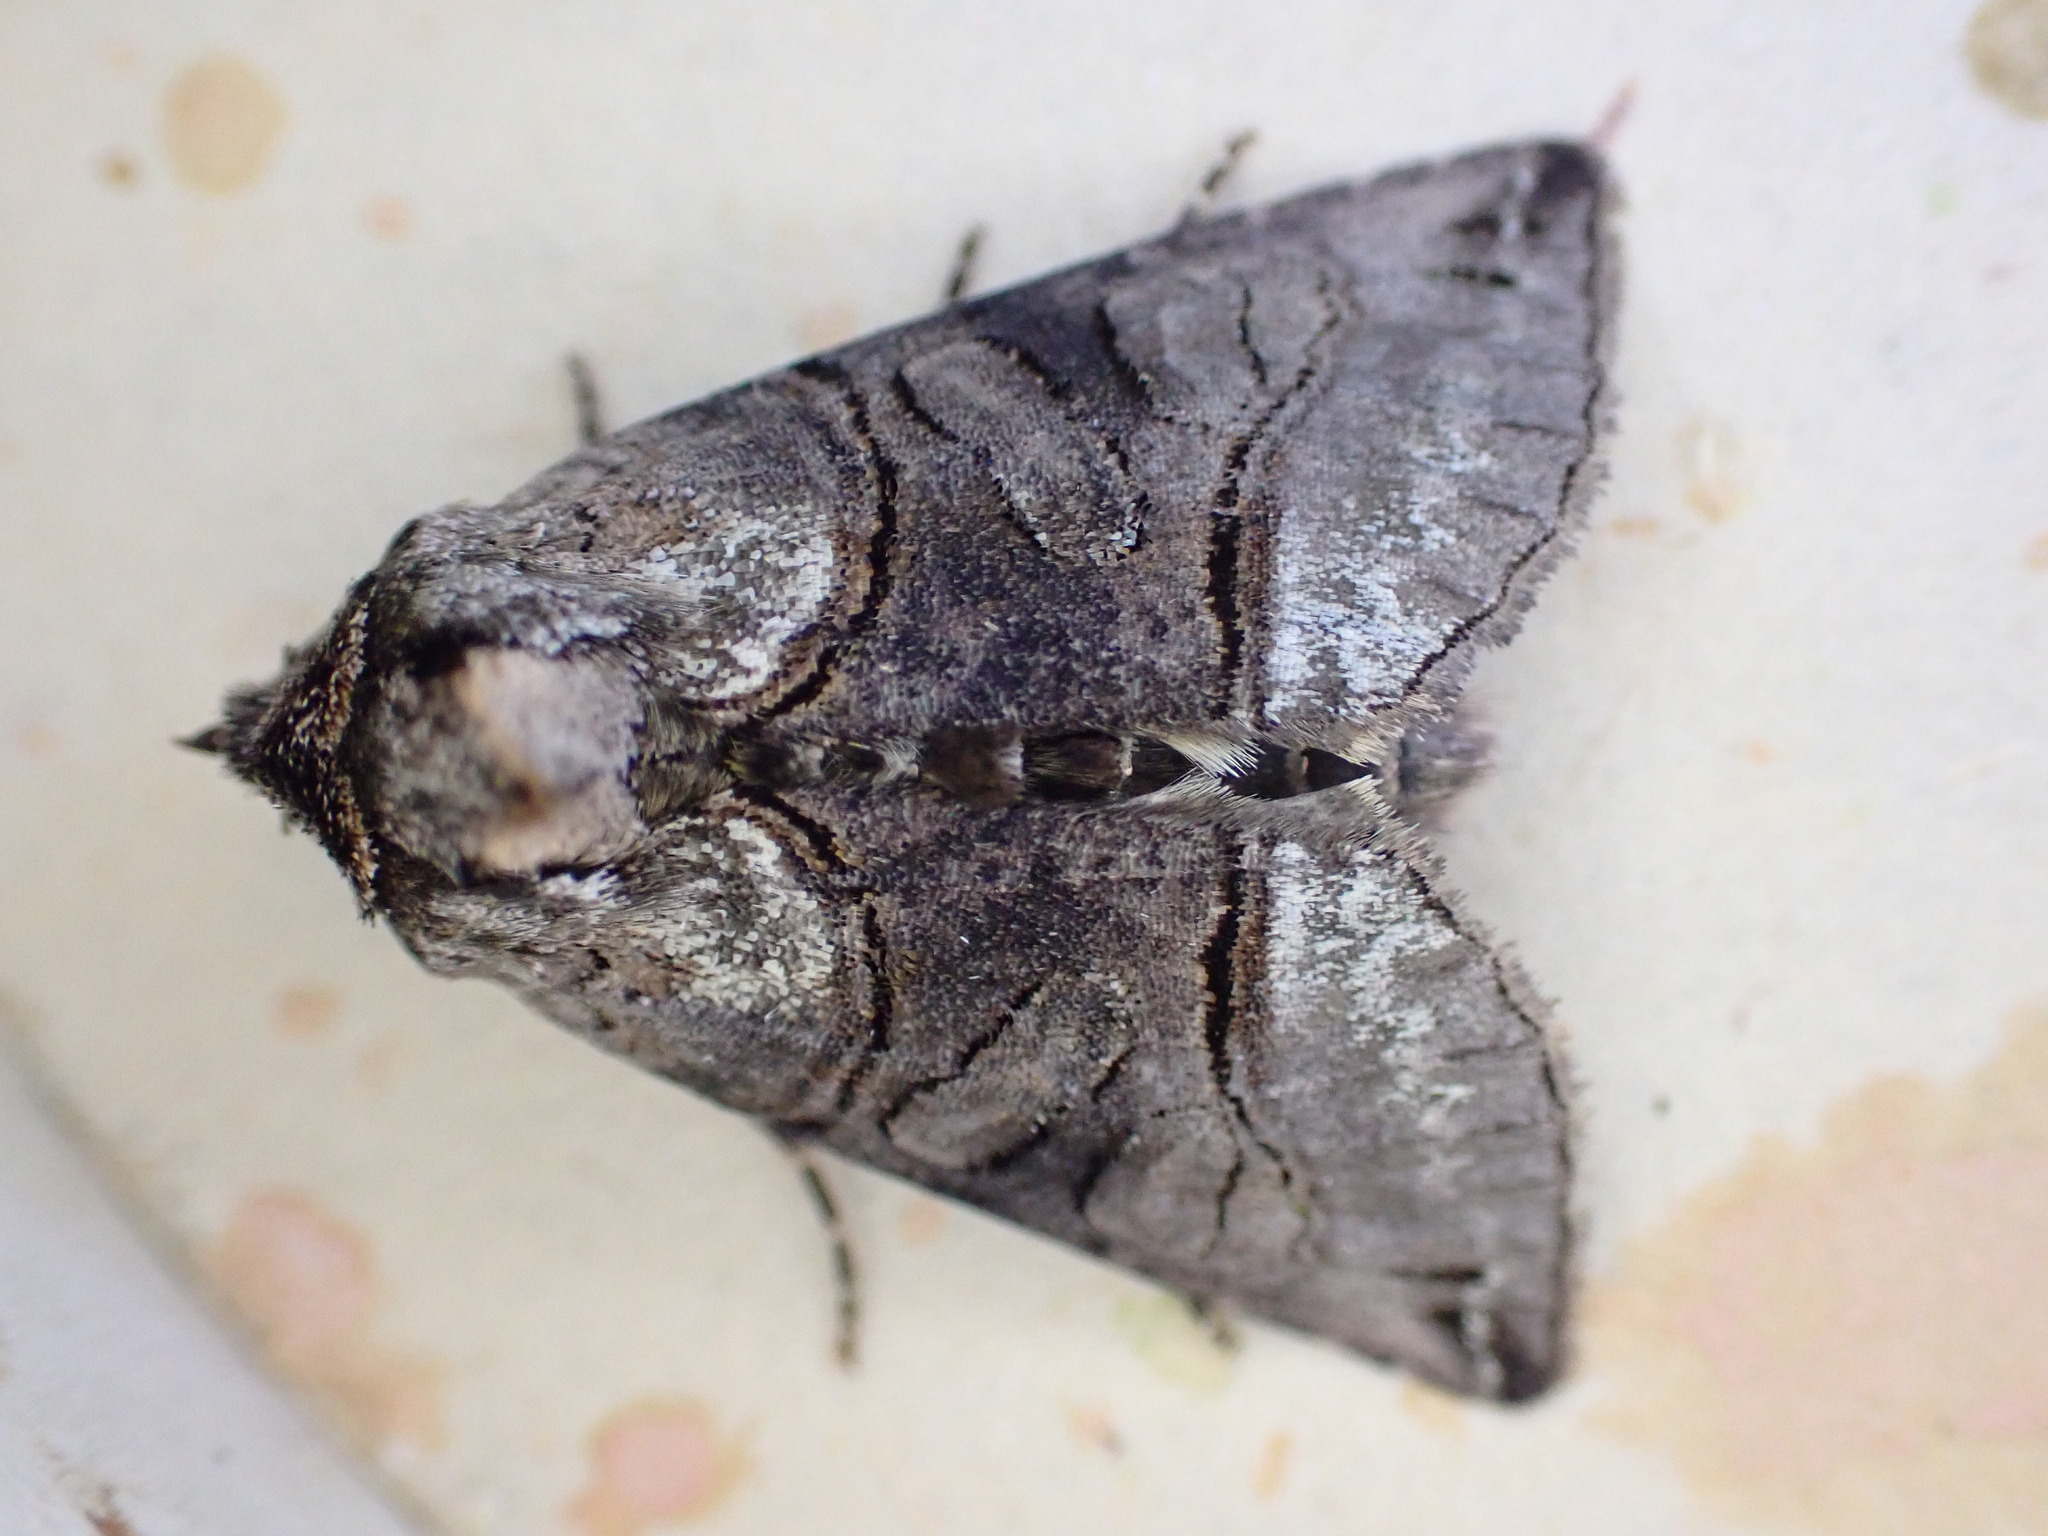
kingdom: Animalia
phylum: Arthropoda
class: Insecta
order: Lepidoptera
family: Noctuidae
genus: Abrostola
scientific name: Abrostola tripartita
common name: Spectacle
